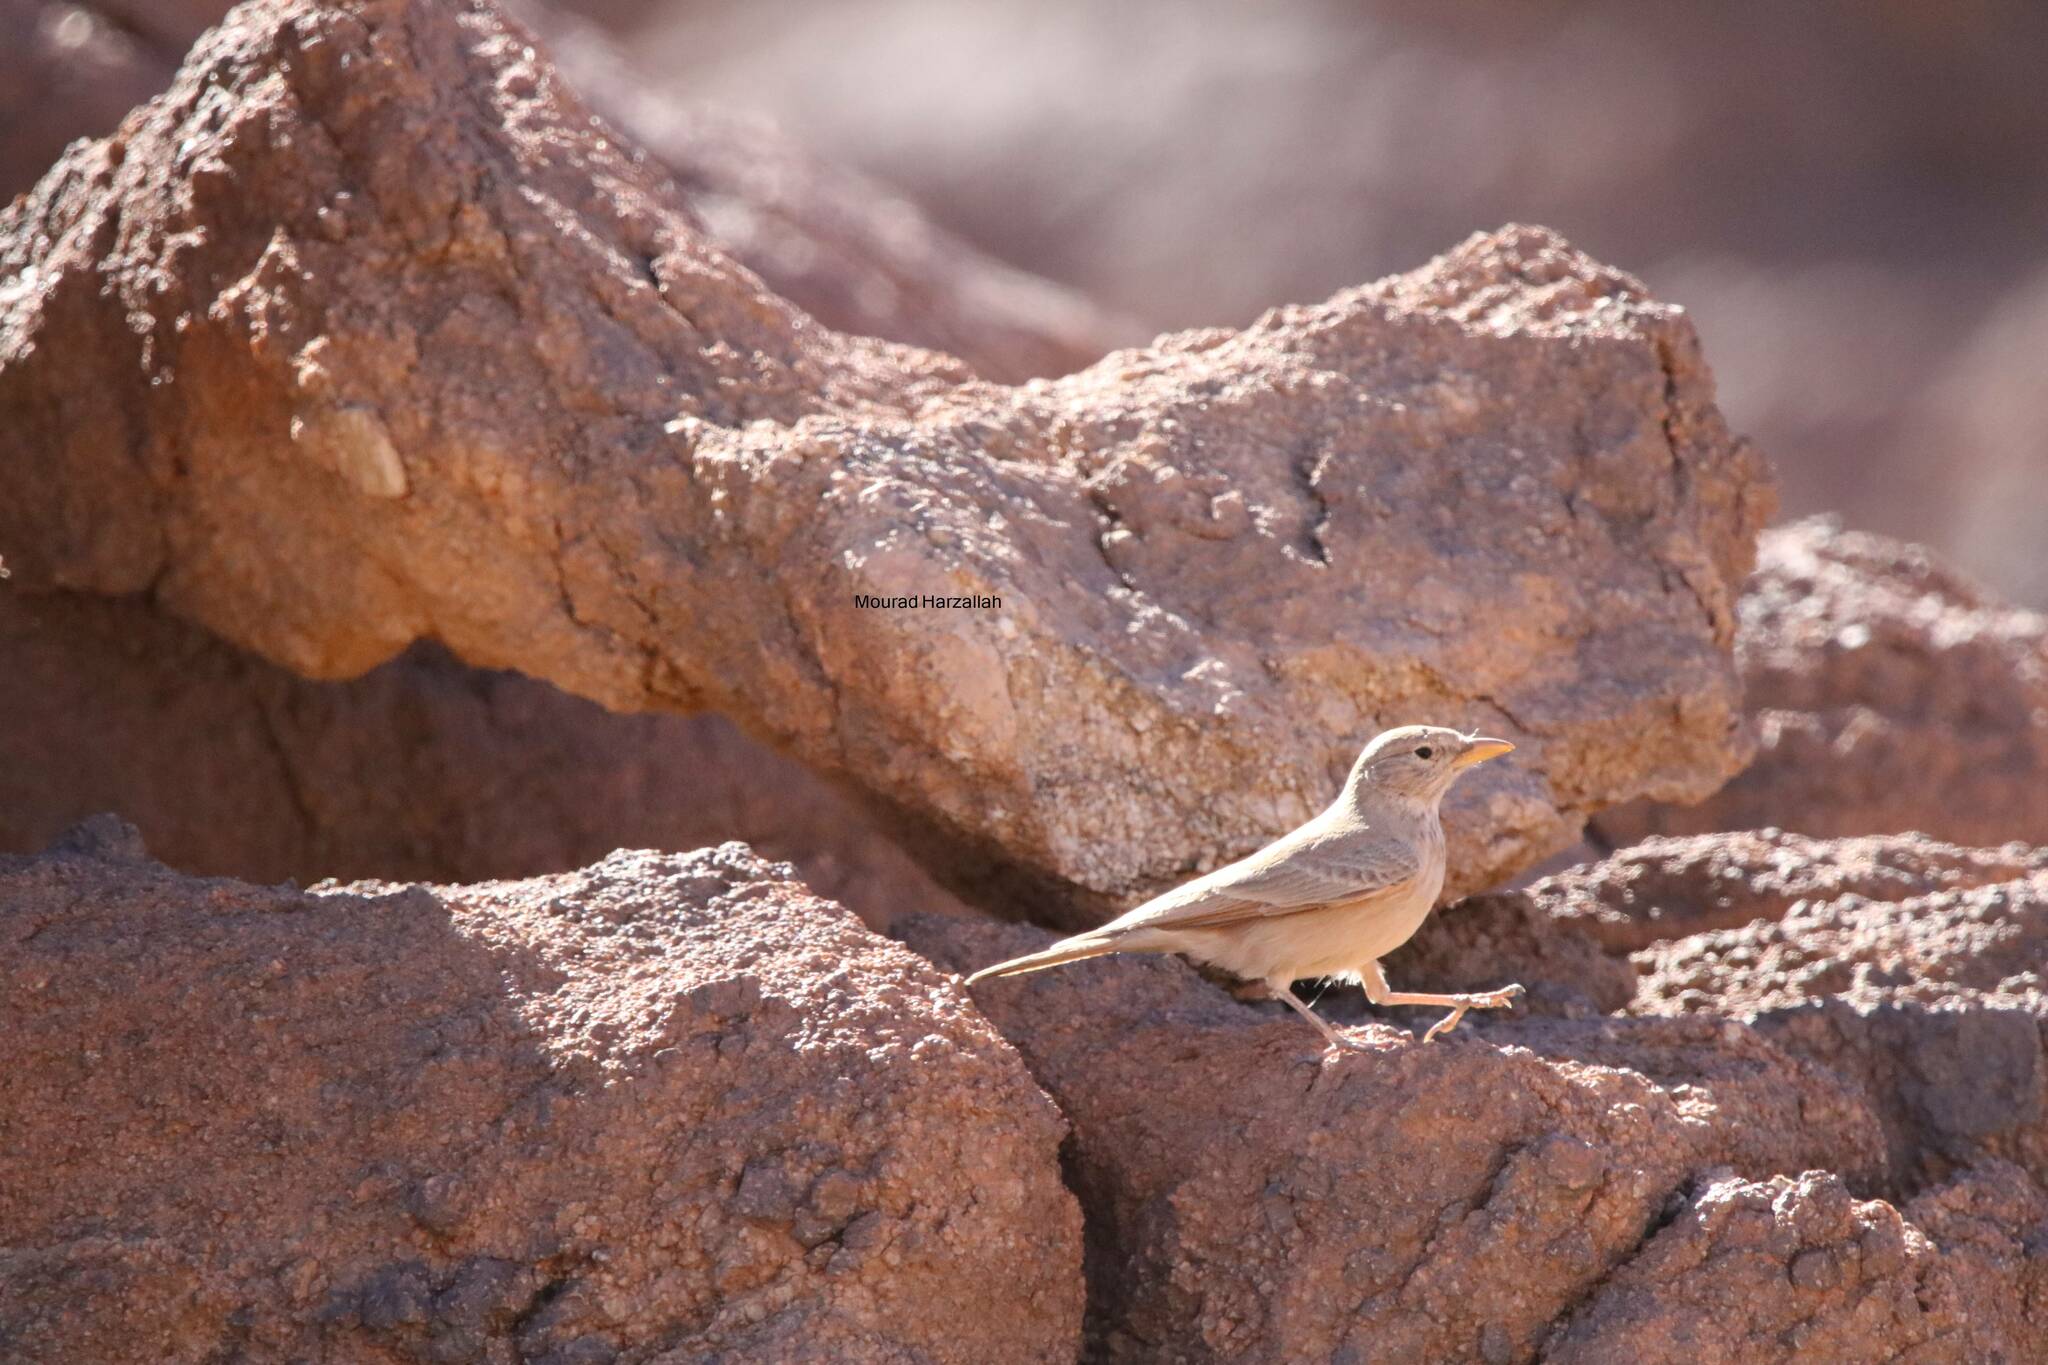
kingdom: Animalia
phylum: Chordata
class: Aves
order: Passeriformes
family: Alaudidae
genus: Ammomanes
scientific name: Ammomanes deserti
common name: Desert lark
